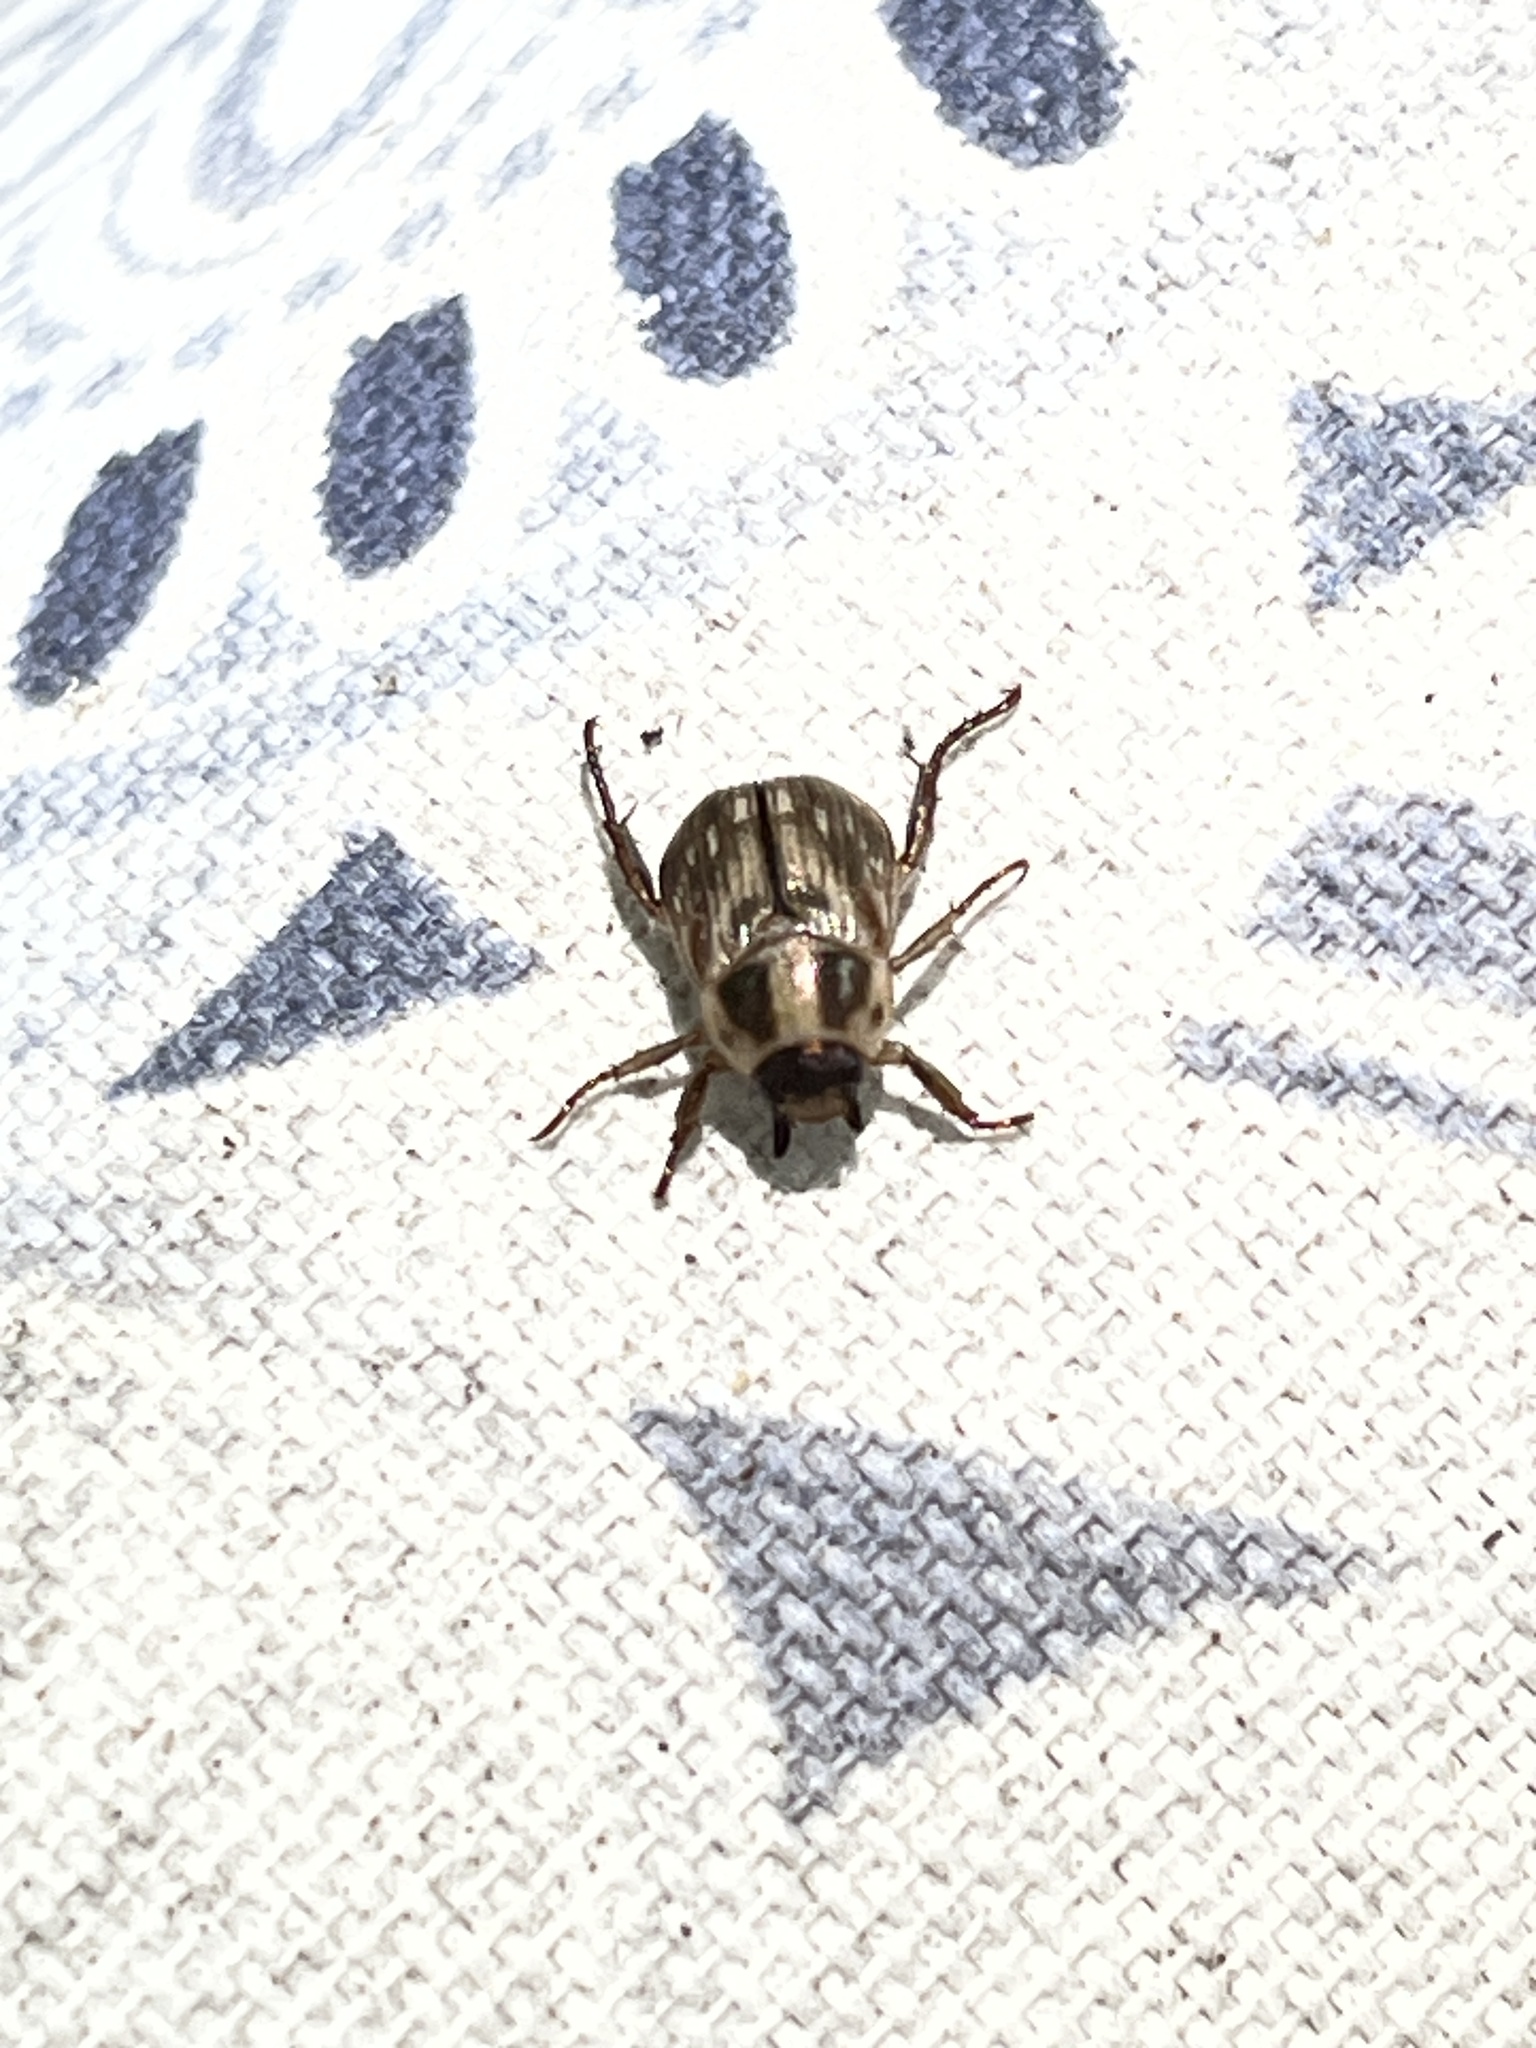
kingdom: Animalia
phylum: Arthropoda
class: Insecta
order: Coleoptera
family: Scarabaeidae
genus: Exomala
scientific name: Exomala orientalis
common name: Oriental beetle
